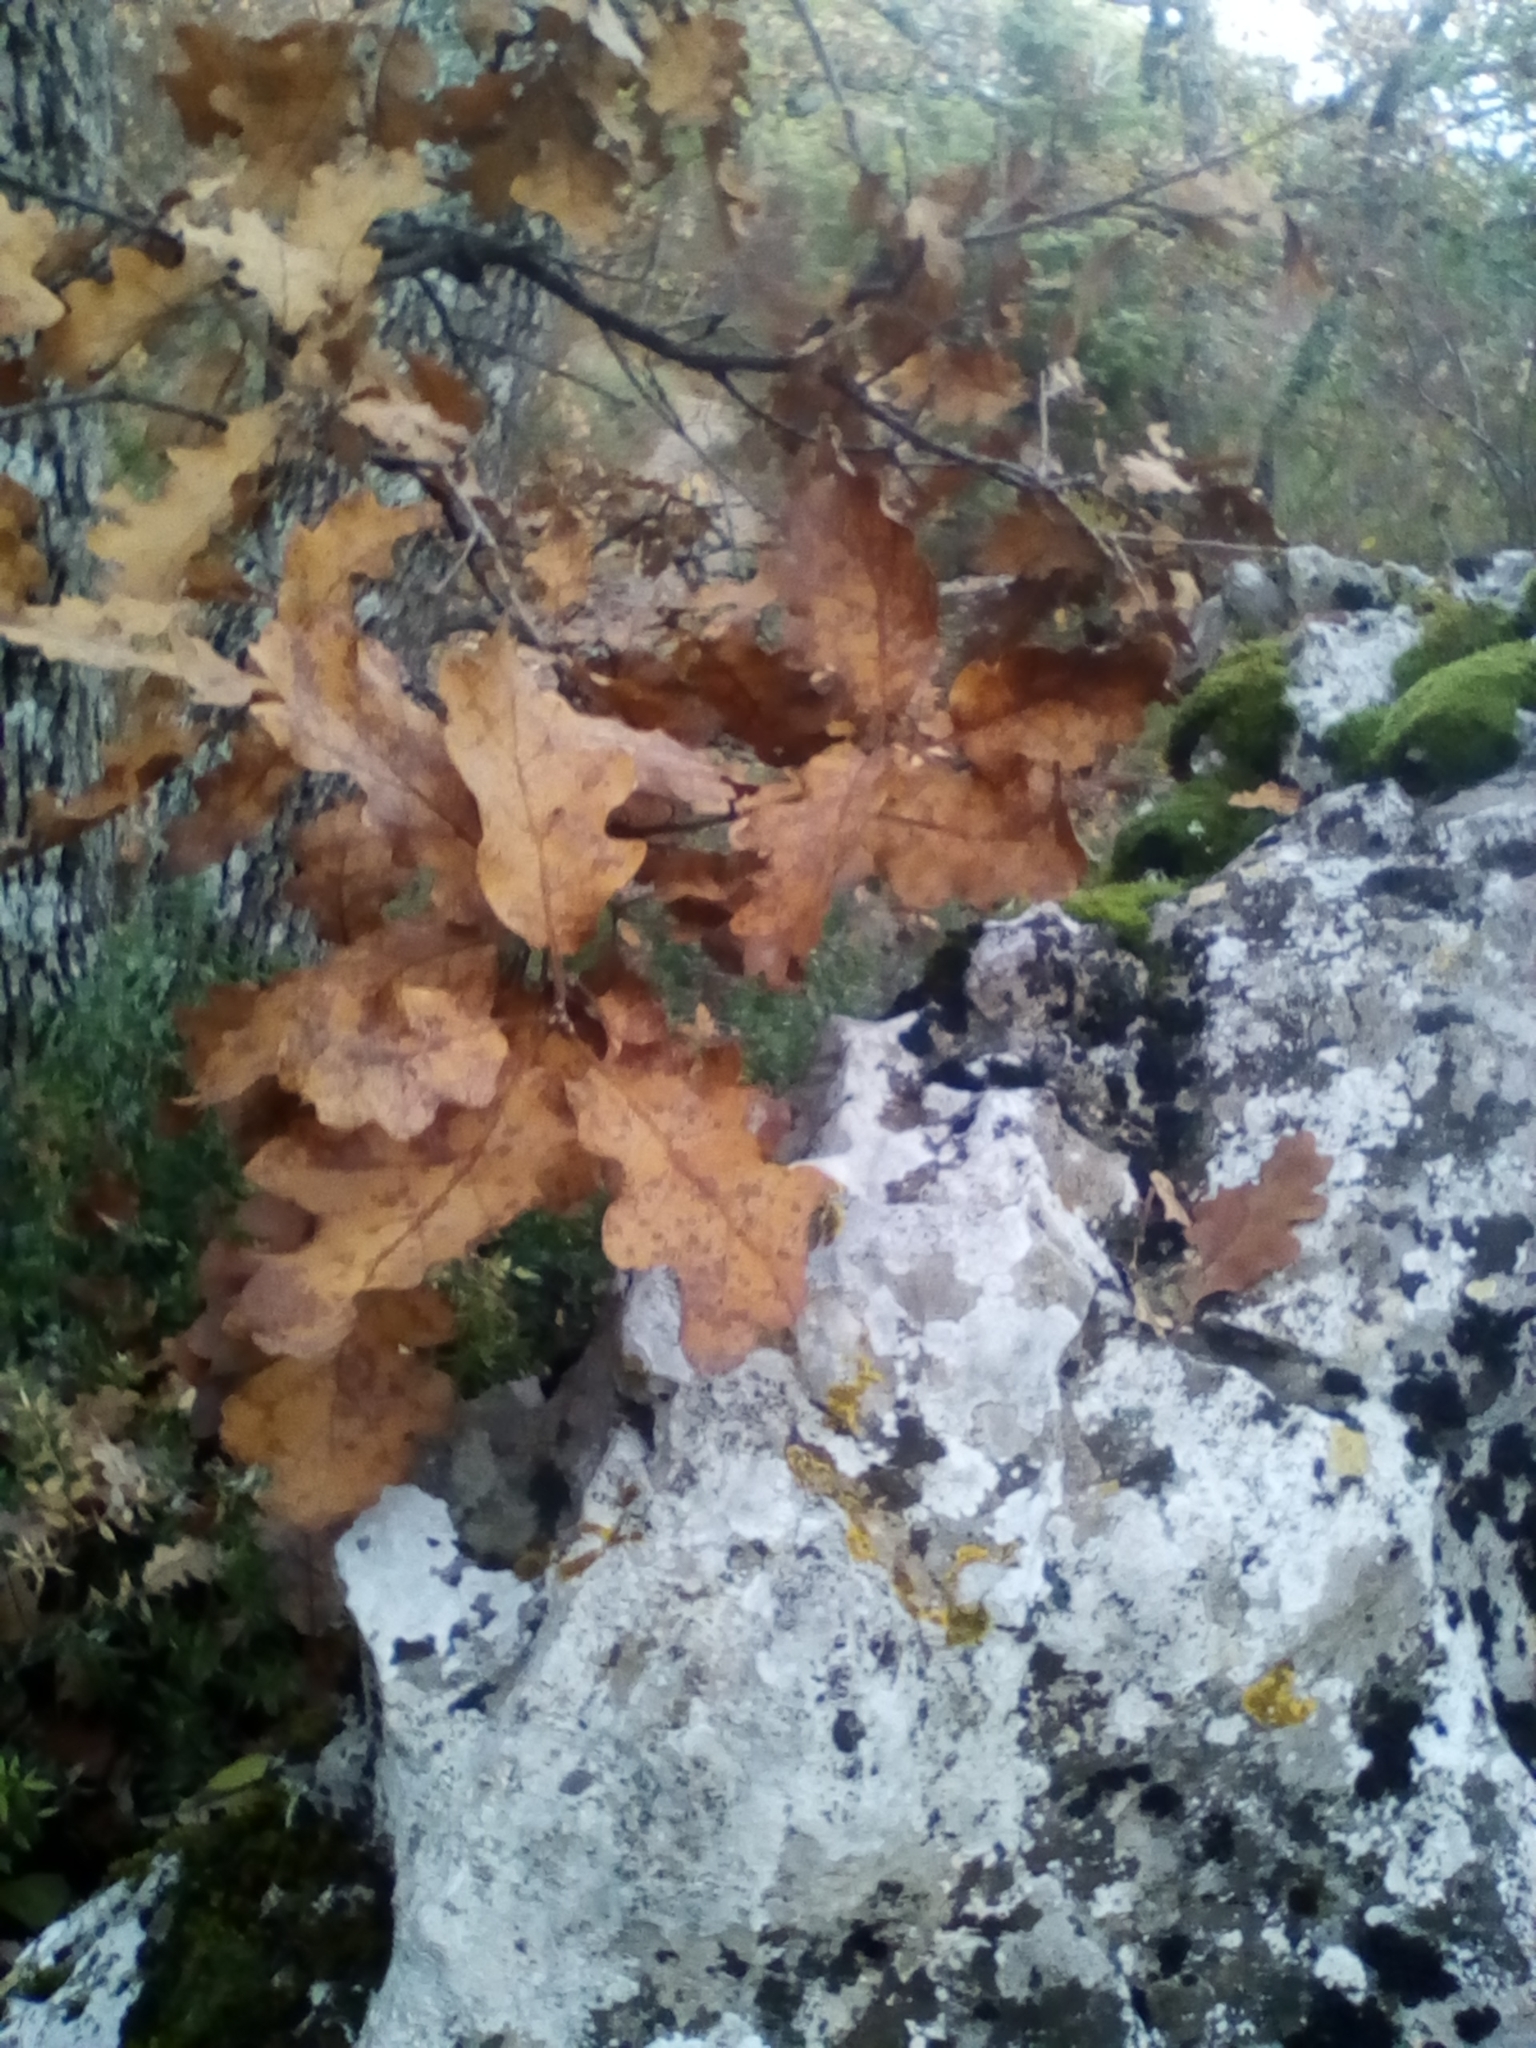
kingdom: Plantae
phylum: Tracheophyta
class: Magnoliopsida
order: Fagales
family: Fagaceae
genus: Quercus
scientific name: Quercus pubescens
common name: Downy oak
